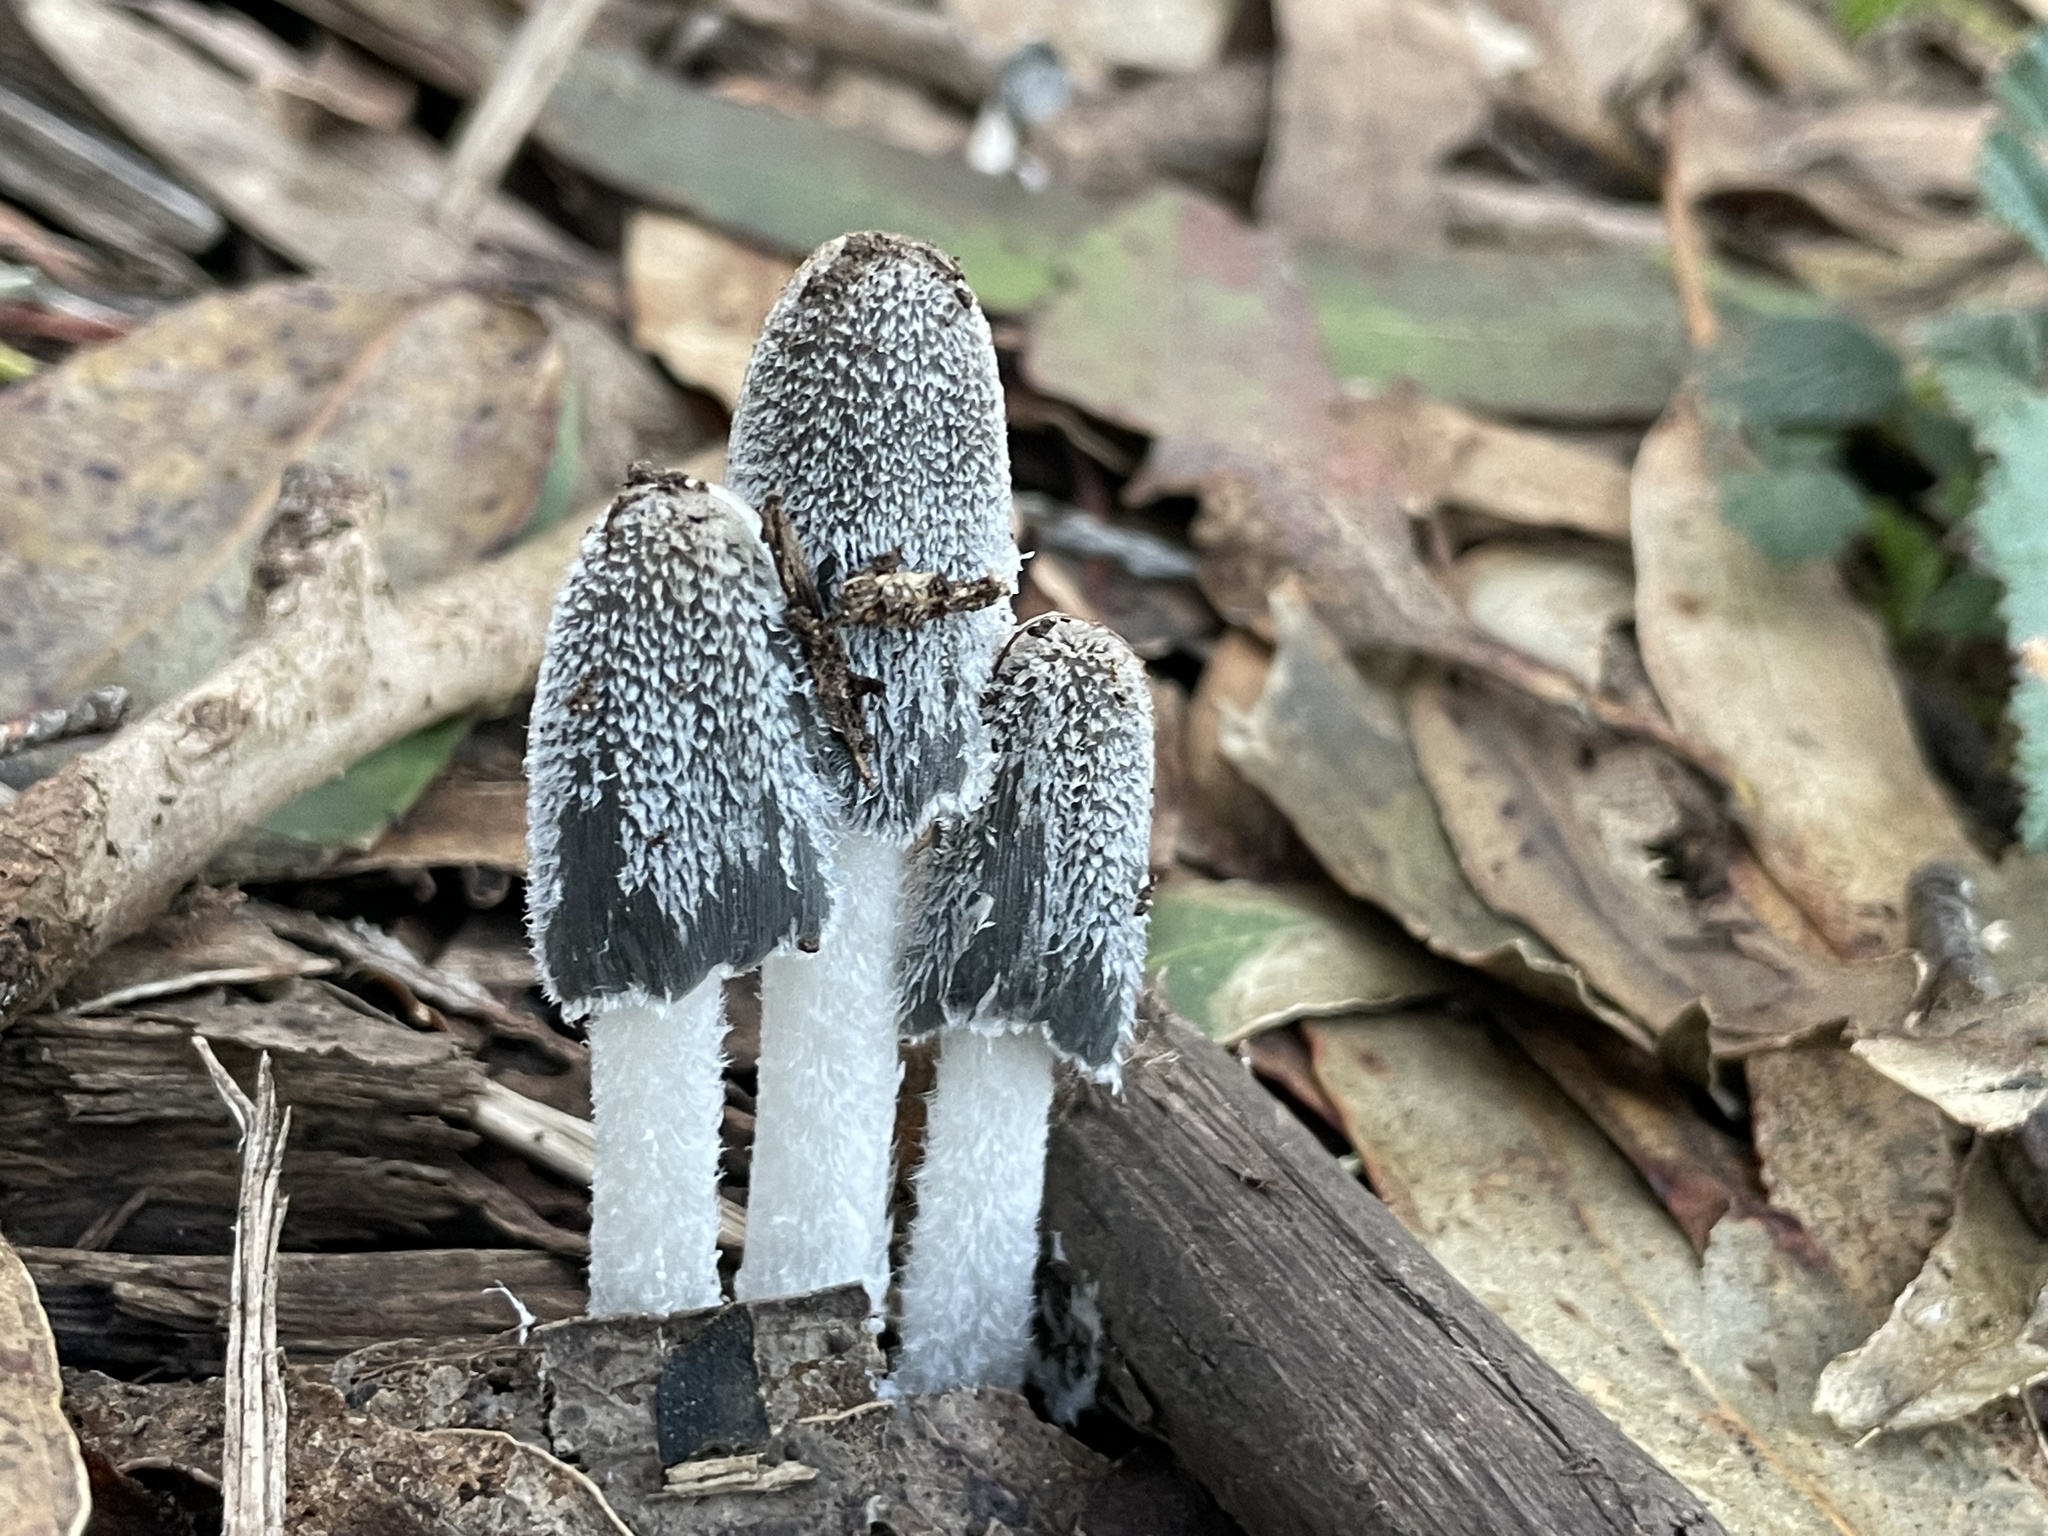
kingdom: Fungi
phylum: Basidiomycota
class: Agaricomycetes
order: Agaricales
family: Psathyrellaceae
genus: Coprinopsis
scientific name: Coprinopsis lagopus
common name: Hare'sfoot inkcap
